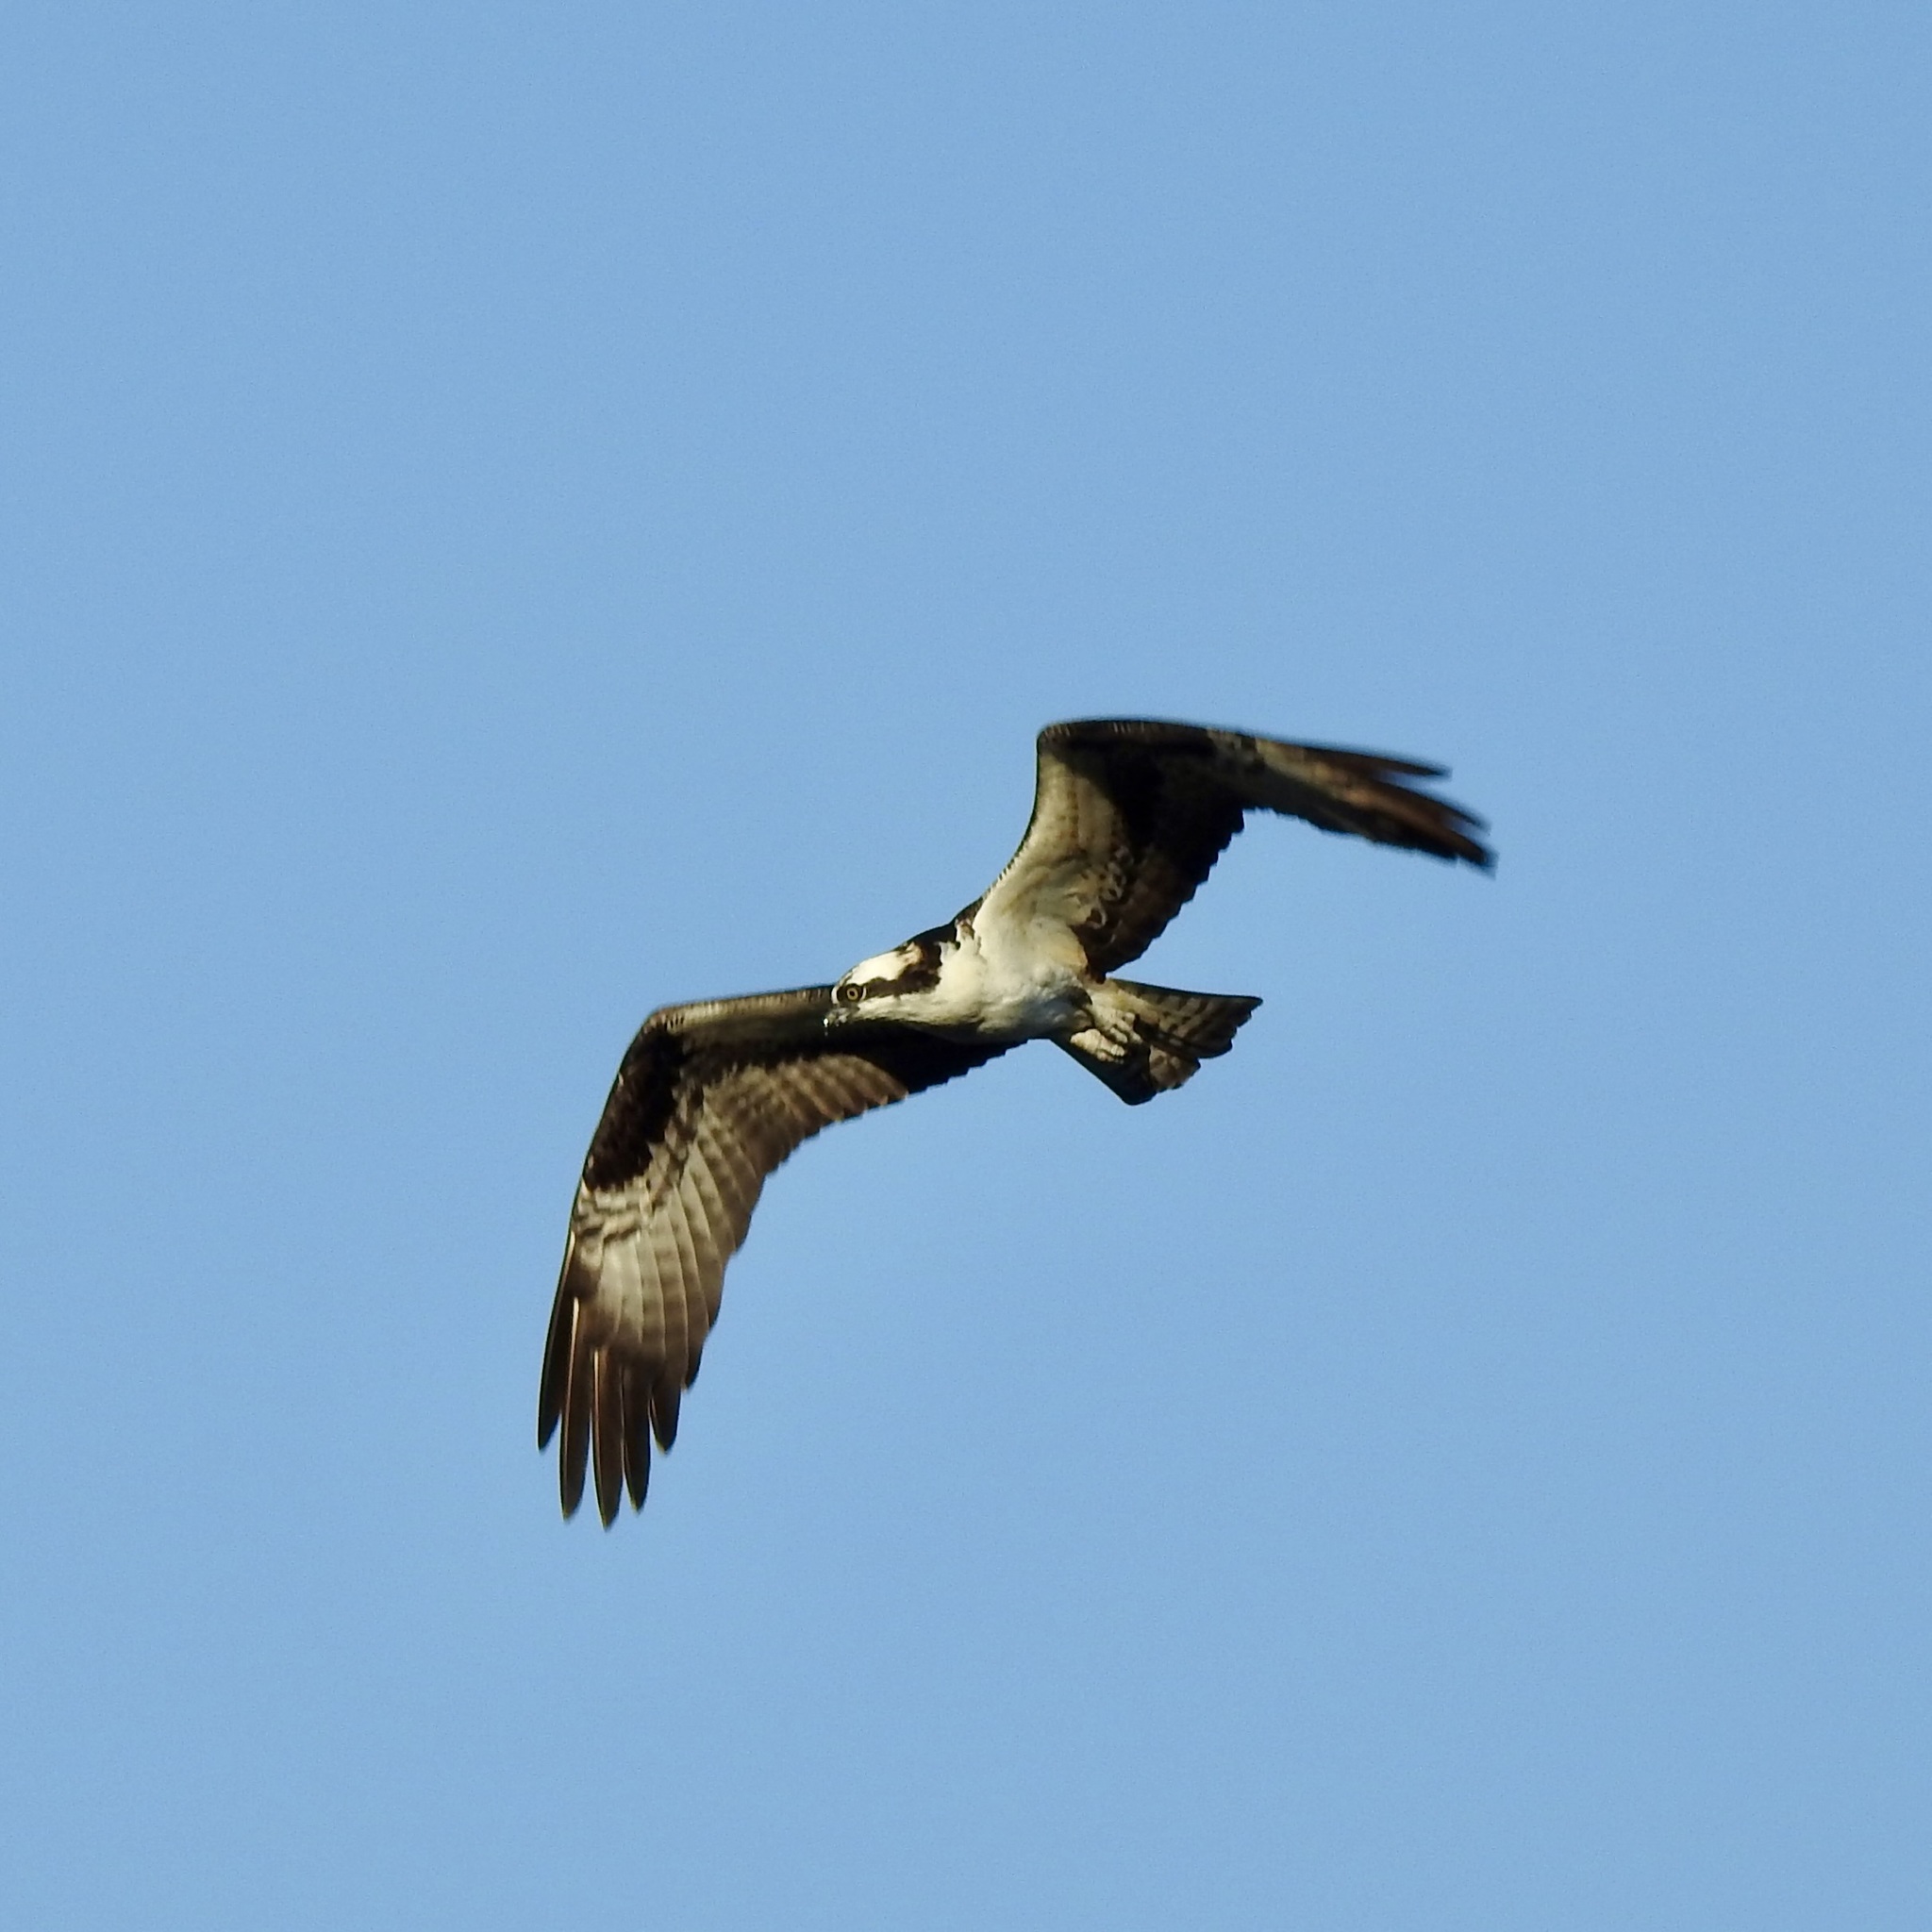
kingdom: Animalia
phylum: Chordata
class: Aves
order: Accipitriformes
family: Pandionidae
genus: Pandion
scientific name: Pandion haliaetus
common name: Osprey
